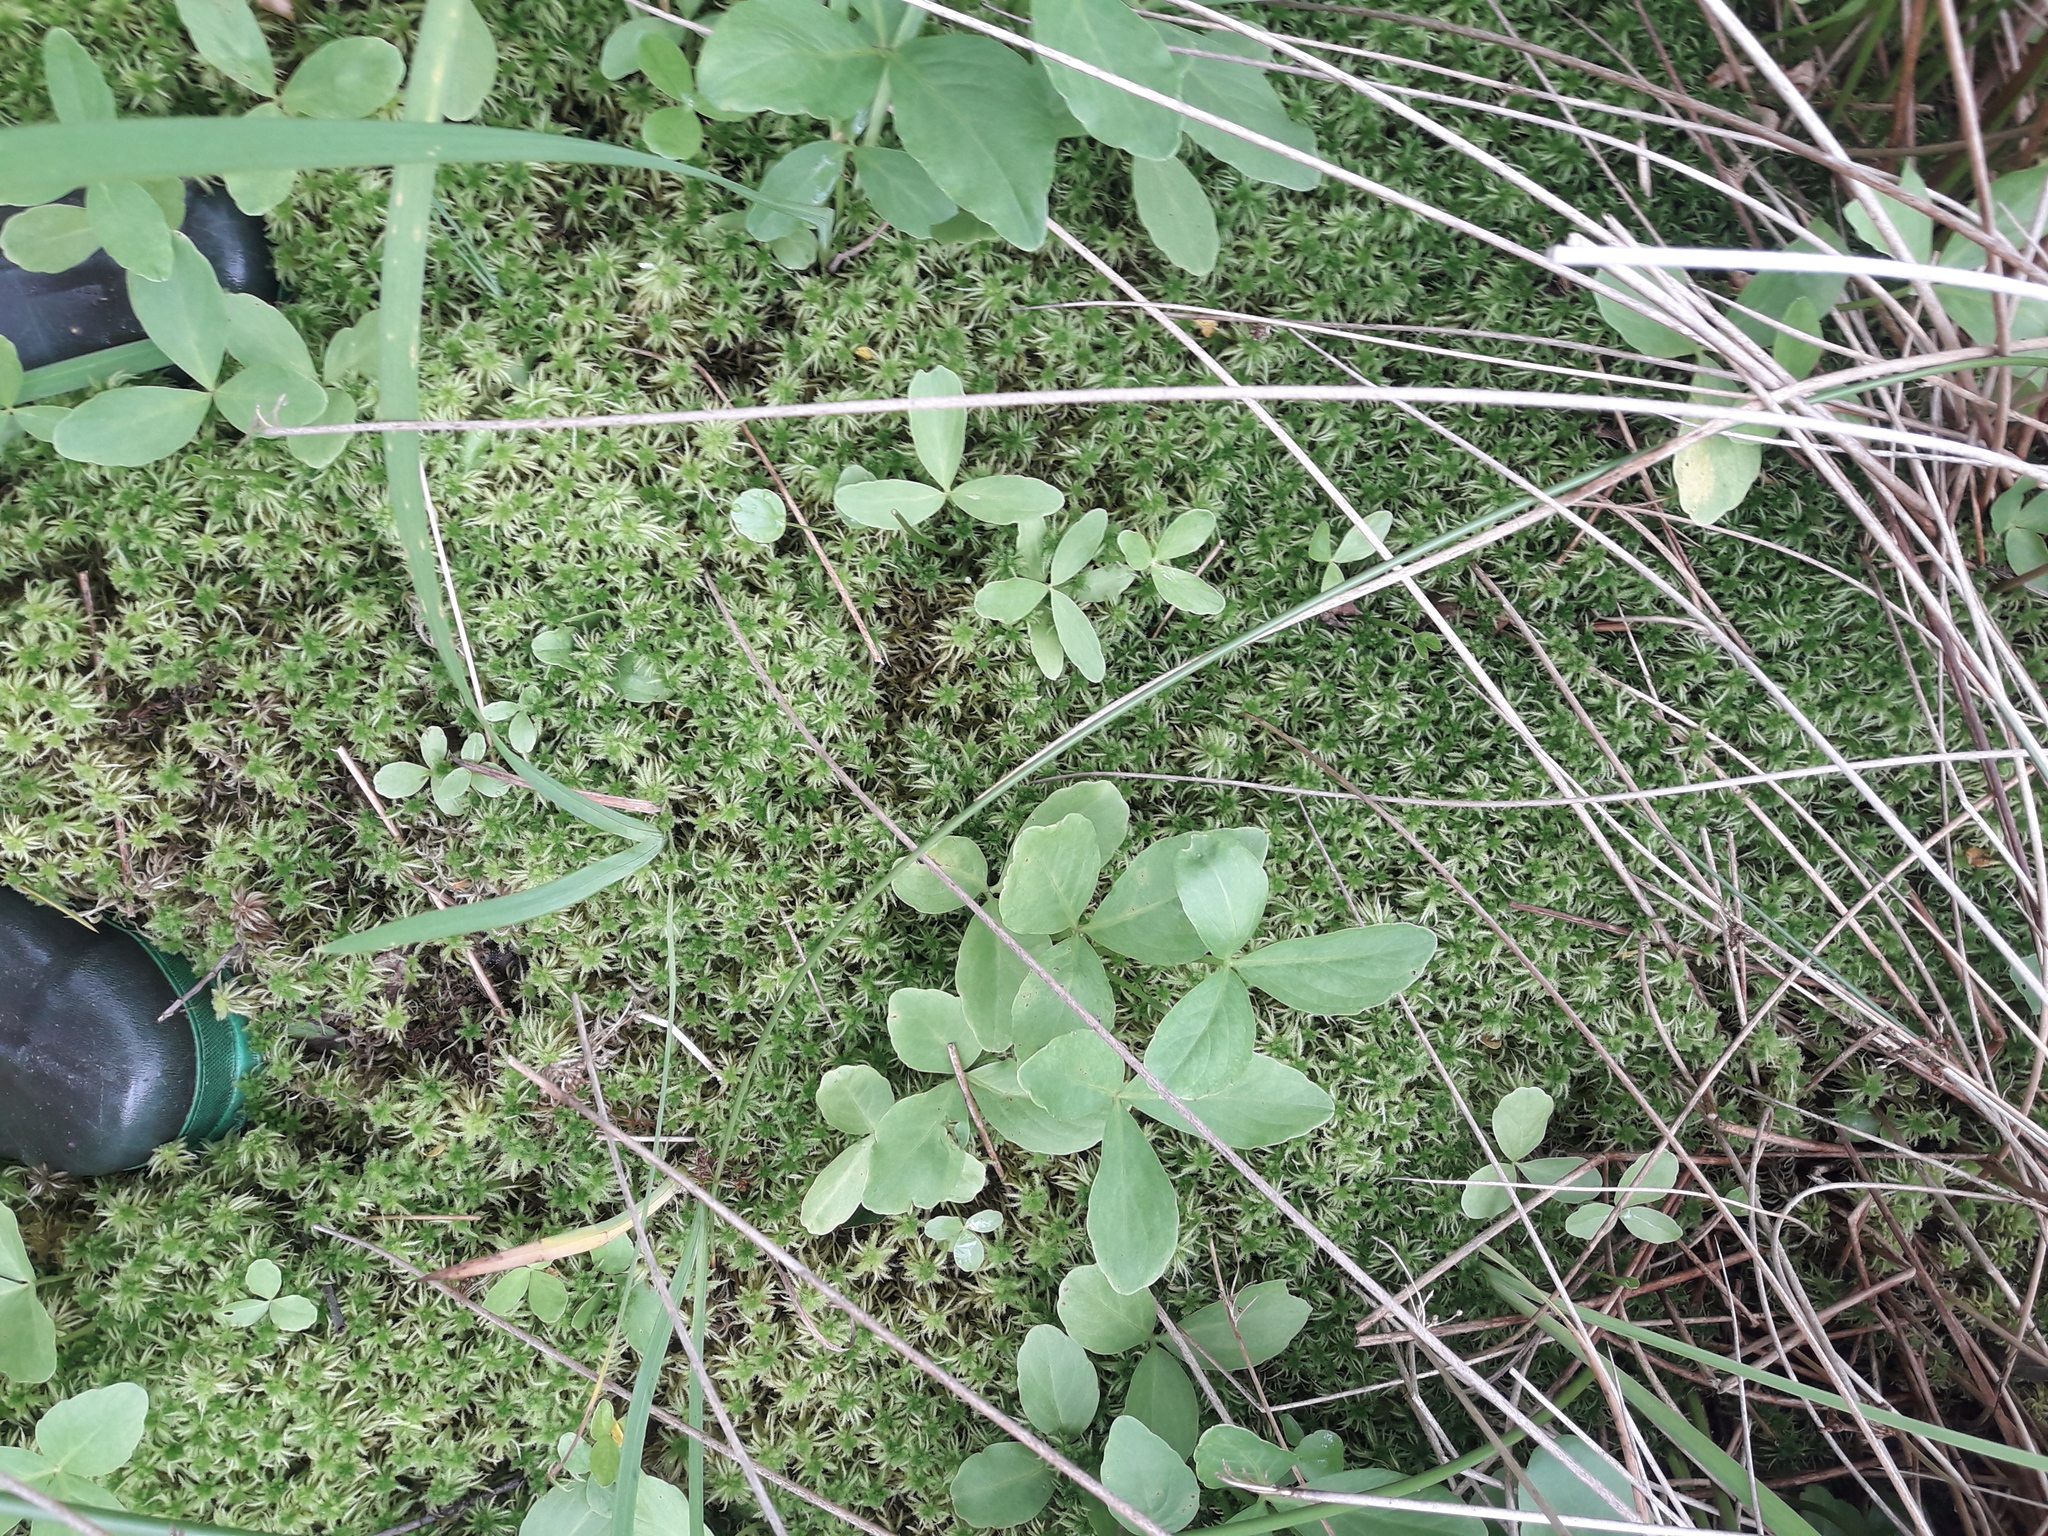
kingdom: Plantae
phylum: Tracheophyta
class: Magnoliopsida
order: Asterales
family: Menyanthaceae
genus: Menyanthes
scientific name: Menyanthes trifoliata
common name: Bogbean
